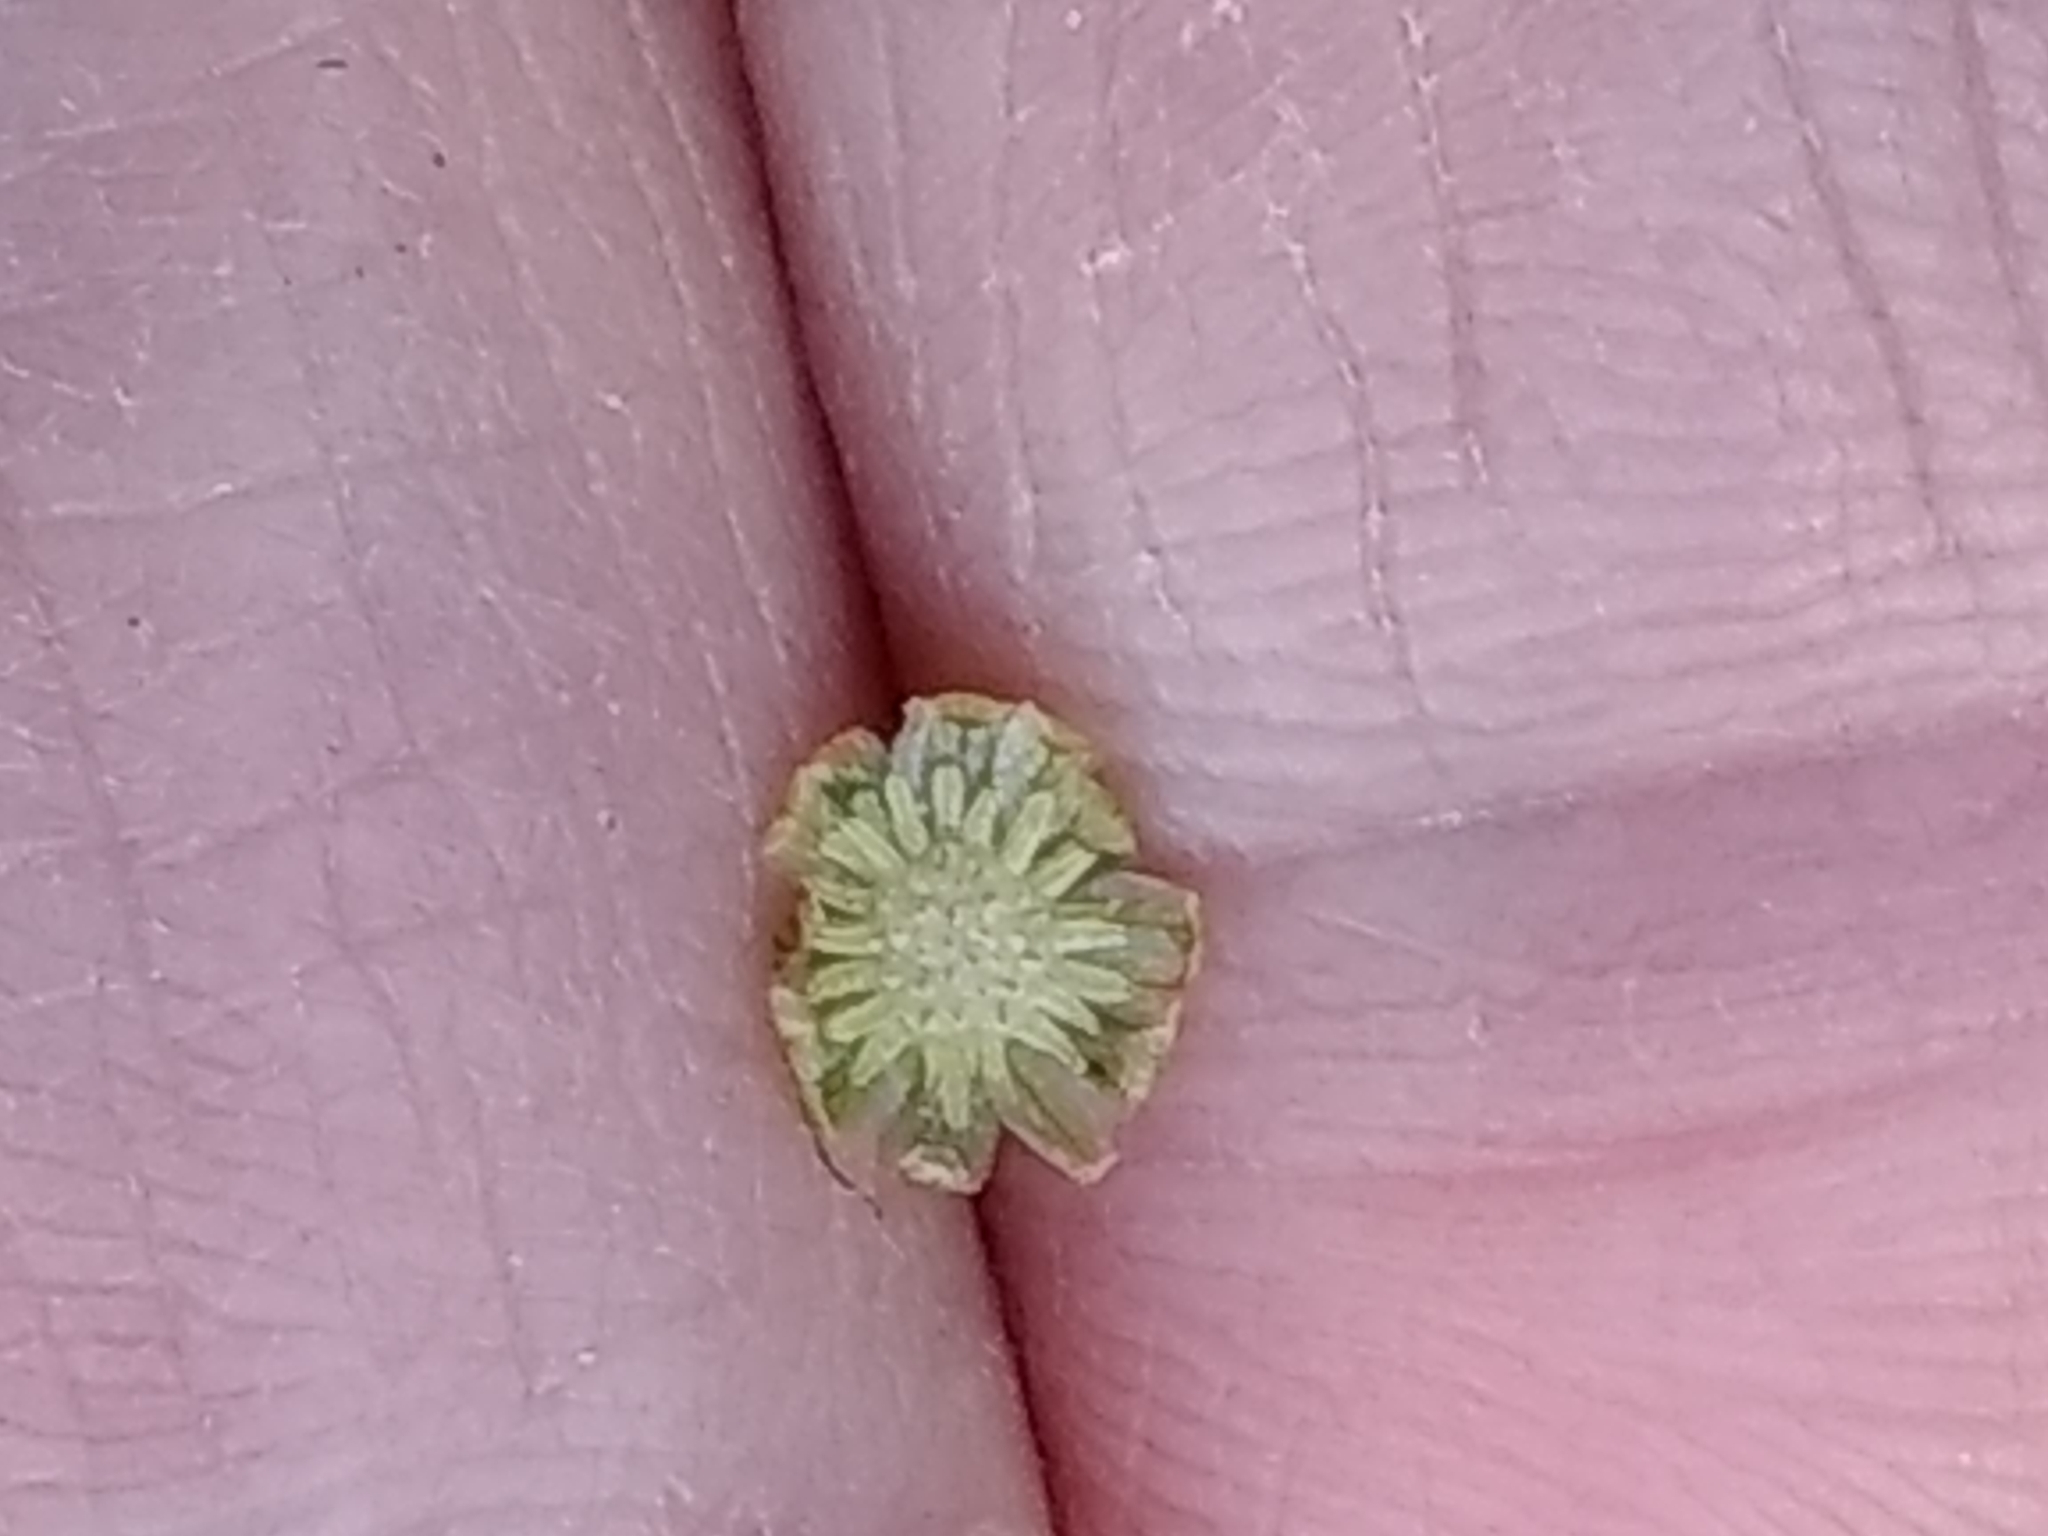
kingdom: Plantae
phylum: Tracheophyta
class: Magnoliopsida
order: Asterales
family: Asteraceae
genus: Cotula
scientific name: Cotula australis
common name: Australian waterbuttons
